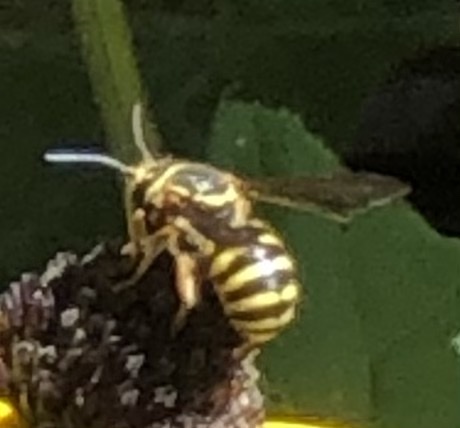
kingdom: Animalia
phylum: Arthropoda
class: Insecta
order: Hymenoptera
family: Megachilidae
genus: Paranthidium
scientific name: Paranthidium jugatorium
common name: Sunflower burrowing-resin bee
